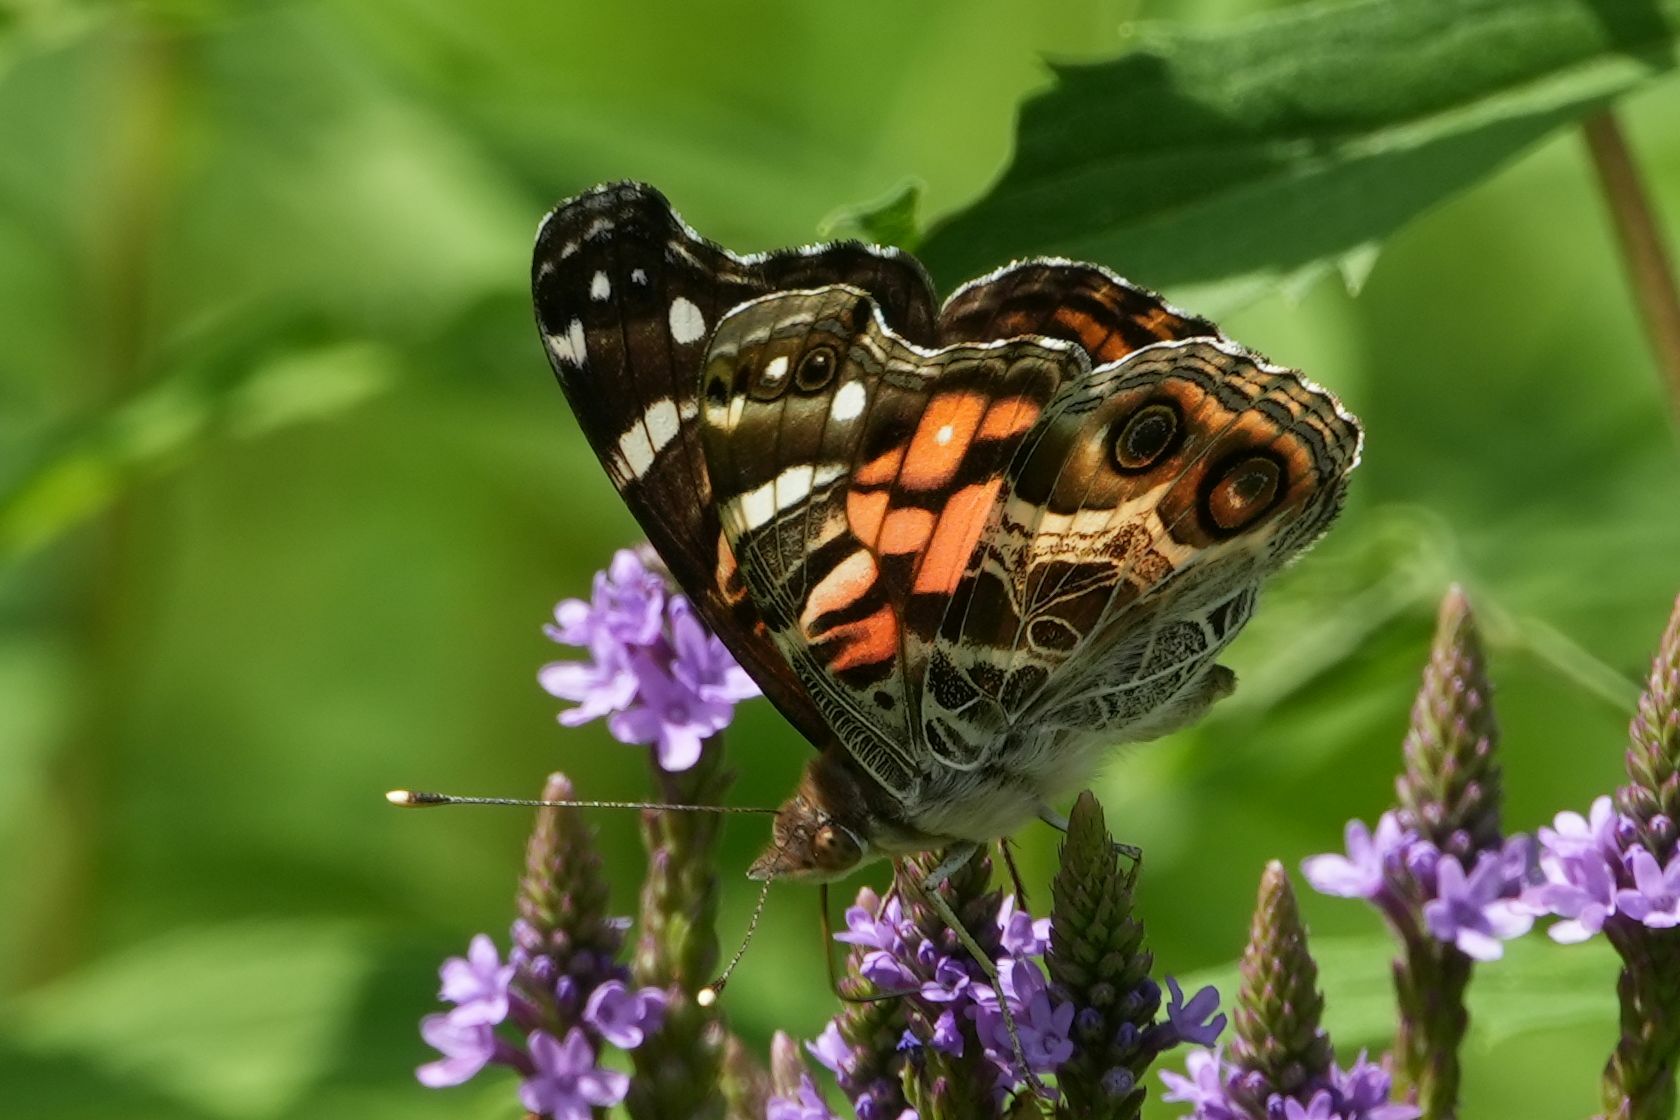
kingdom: Animalia
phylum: Arthropoda
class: Insecta
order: Lepidoptera
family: Nymphalidae
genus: Vanessa
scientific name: Vanessa virginiensis
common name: American lady
